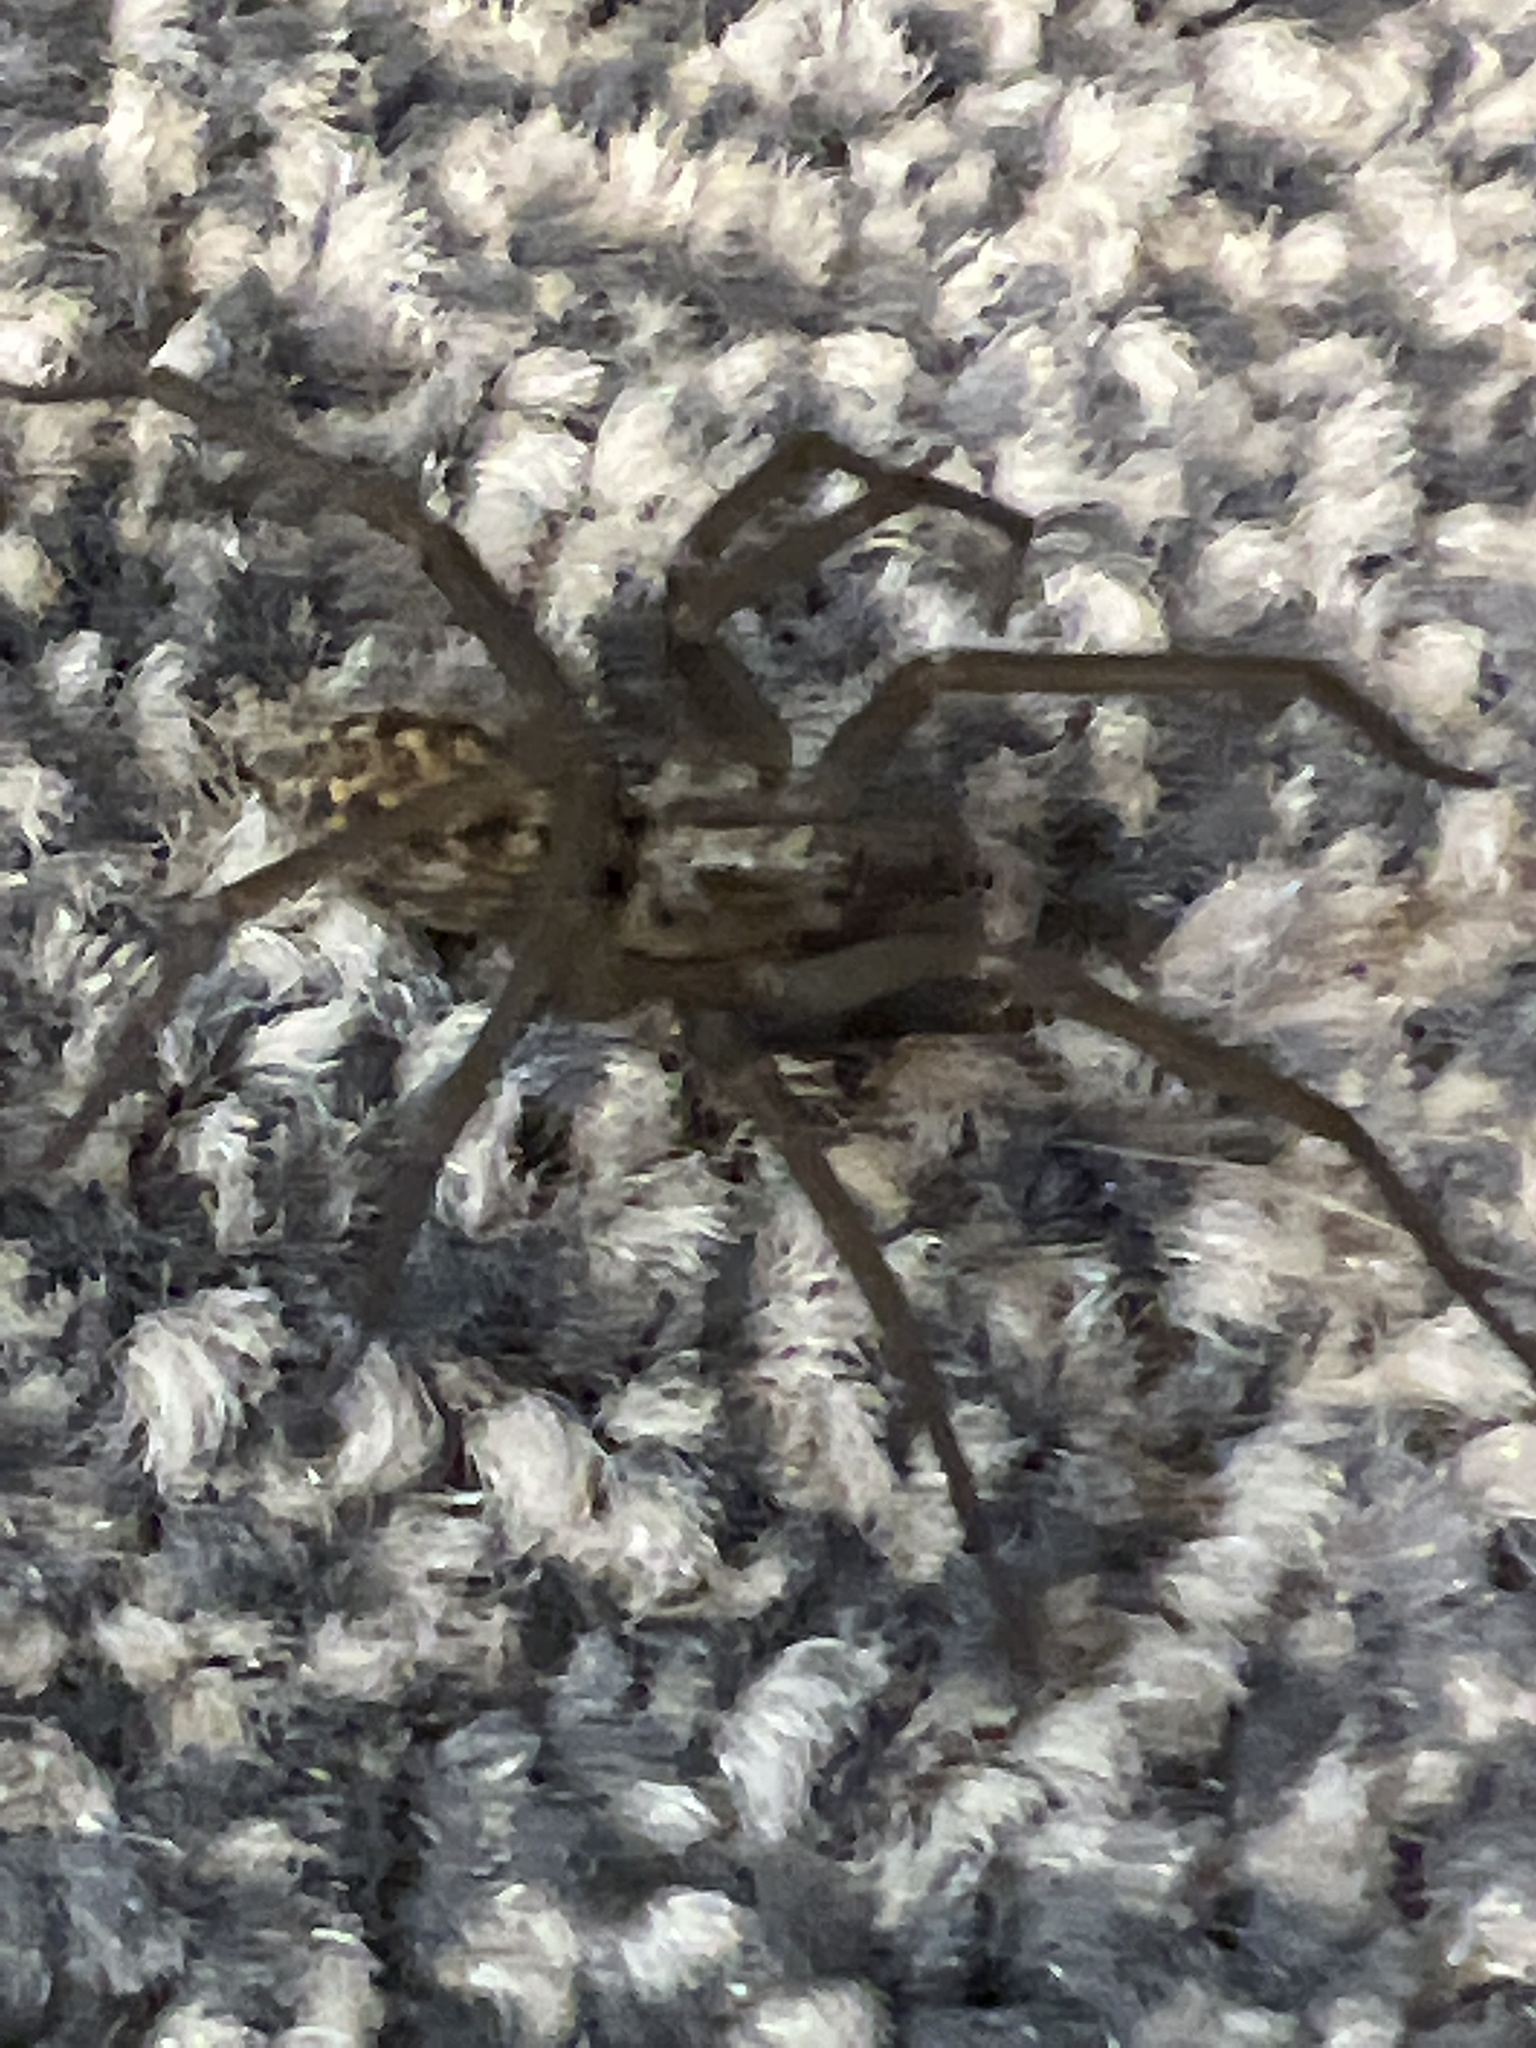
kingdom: Animalia
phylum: Arthropoda
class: Arachnida
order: Araneae
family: Agelenidae
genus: Eratigena
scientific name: Eratigena
